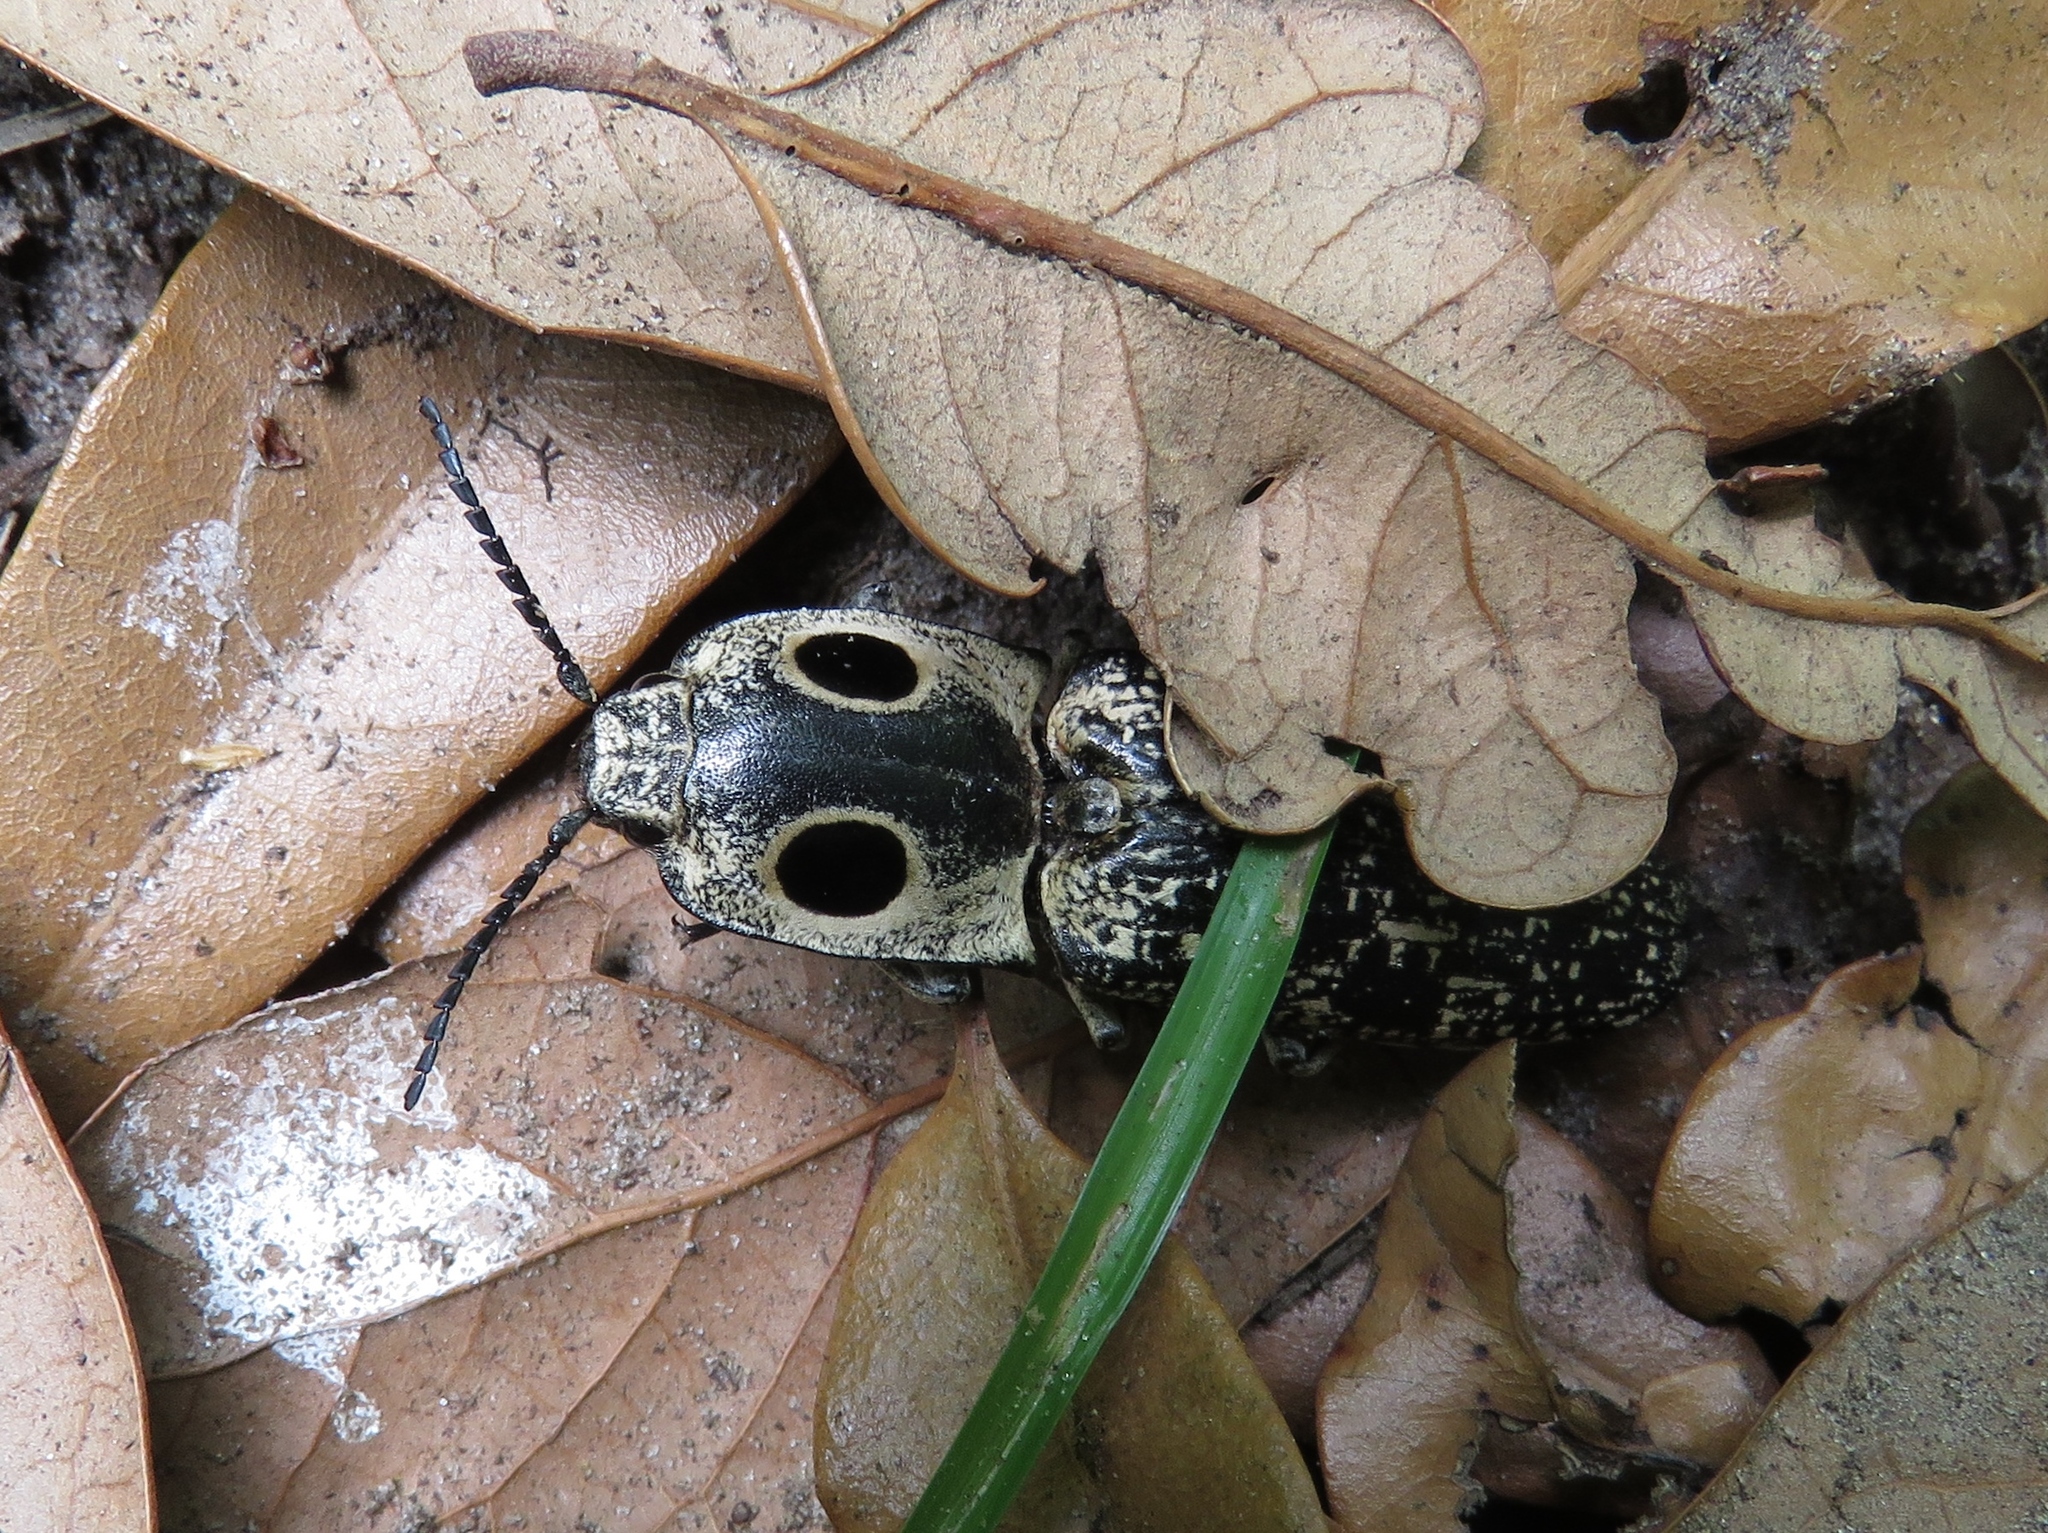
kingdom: Animalia
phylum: Arthropoda
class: Insecta
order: Coleoptera
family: Elateridae
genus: Alaus
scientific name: Alaus oculatus
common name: Eastern eyed click beetle
